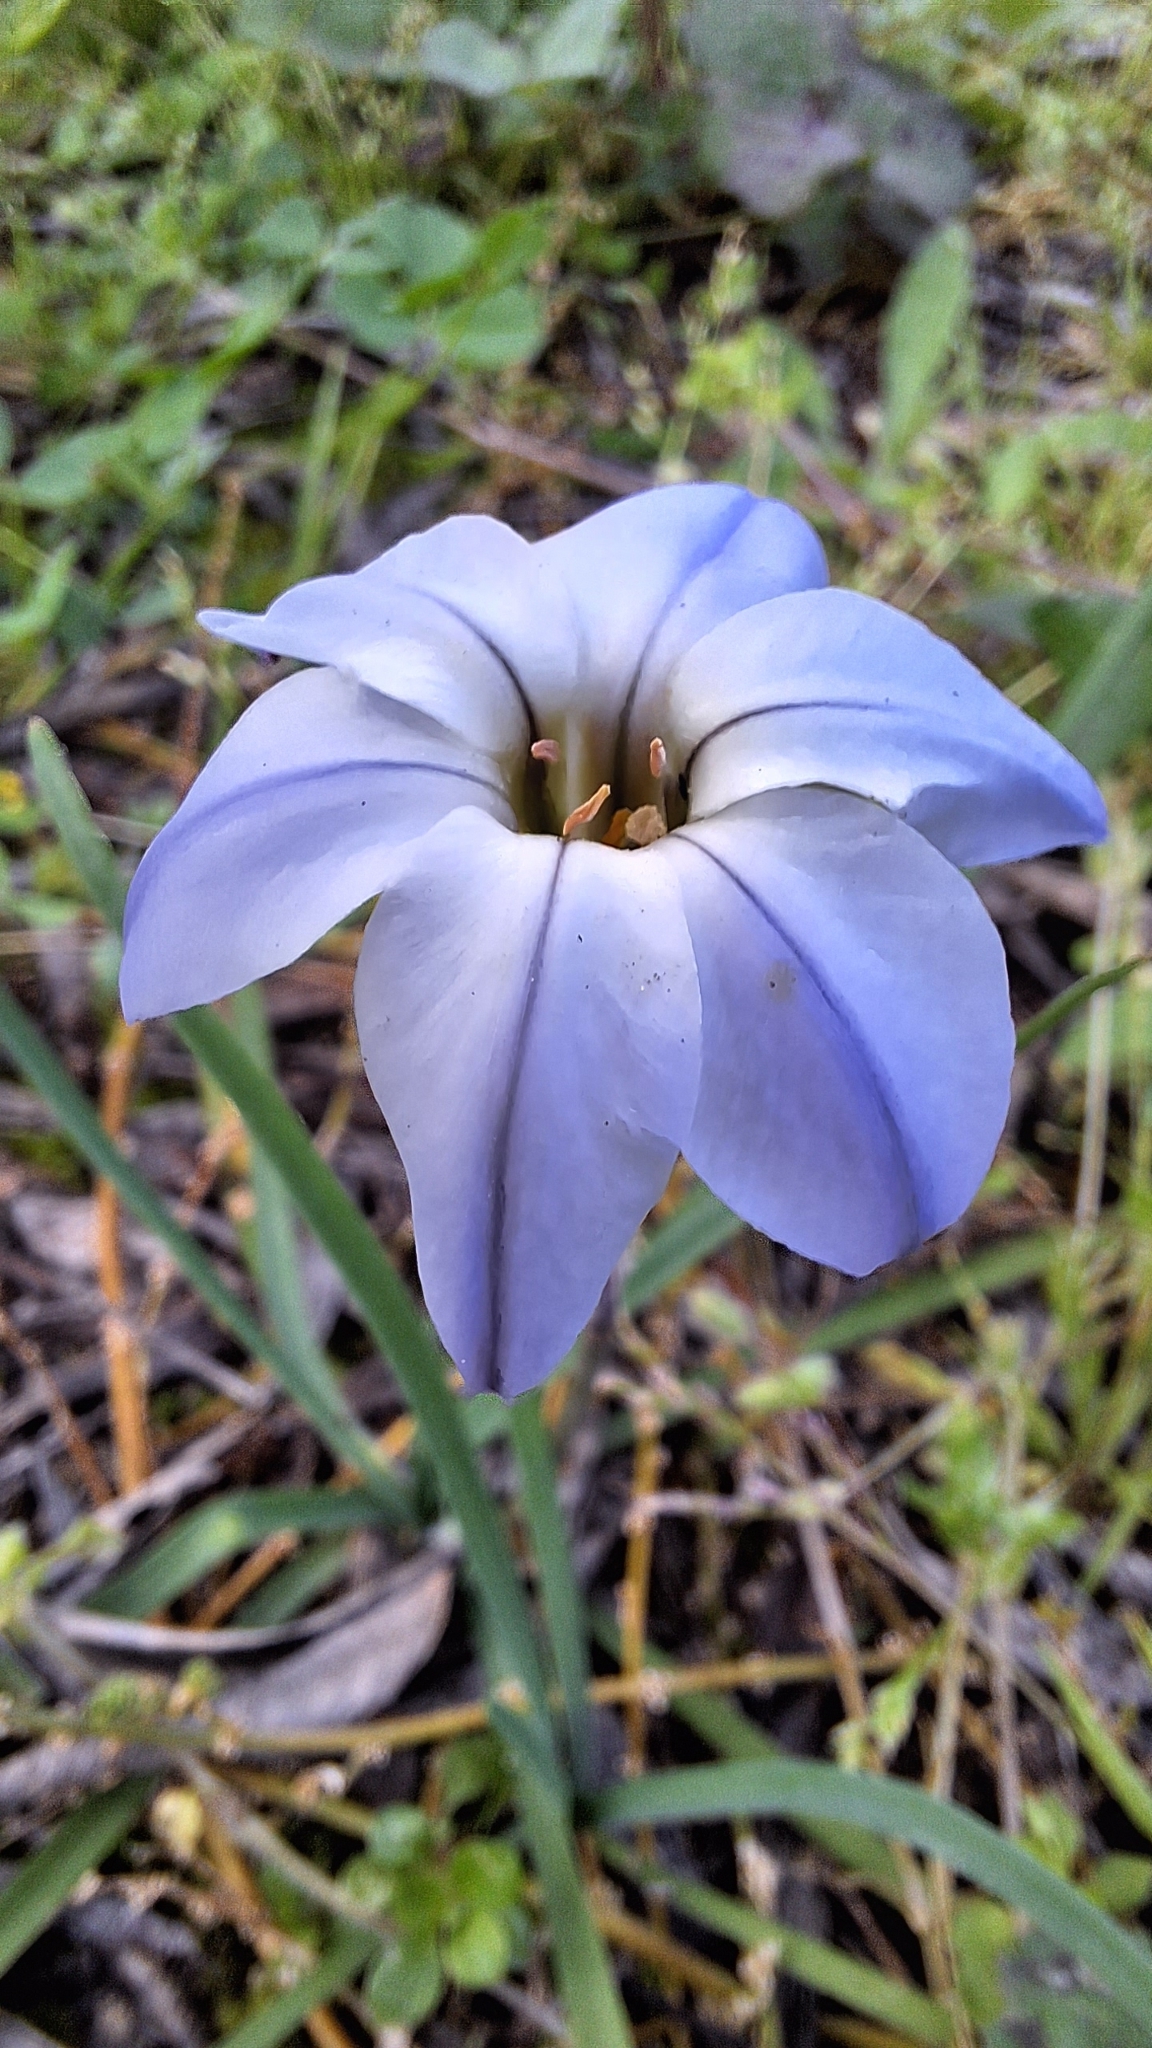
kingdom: Plantae
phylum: Tracheophyta
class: Liliopsida
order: Asparagales
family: Amaryllidaceae
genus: Ipheion
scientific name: Ipheion uniflorum
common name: Spring starflower
